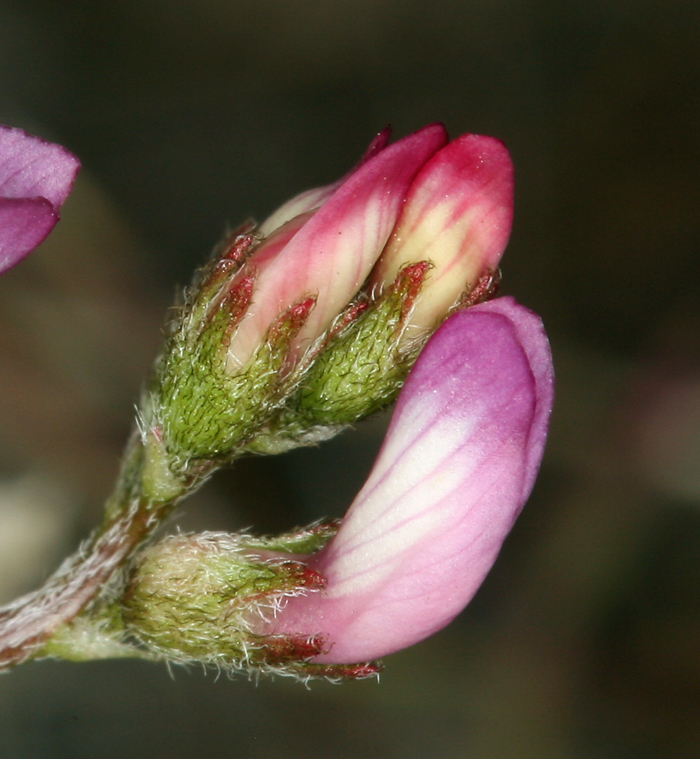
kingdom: Plantae
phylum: Tracheophyta
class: Magnoliopsida
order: Fabales
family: Fabaceae
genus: Astragalus
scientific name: Astragalus acutirostris
